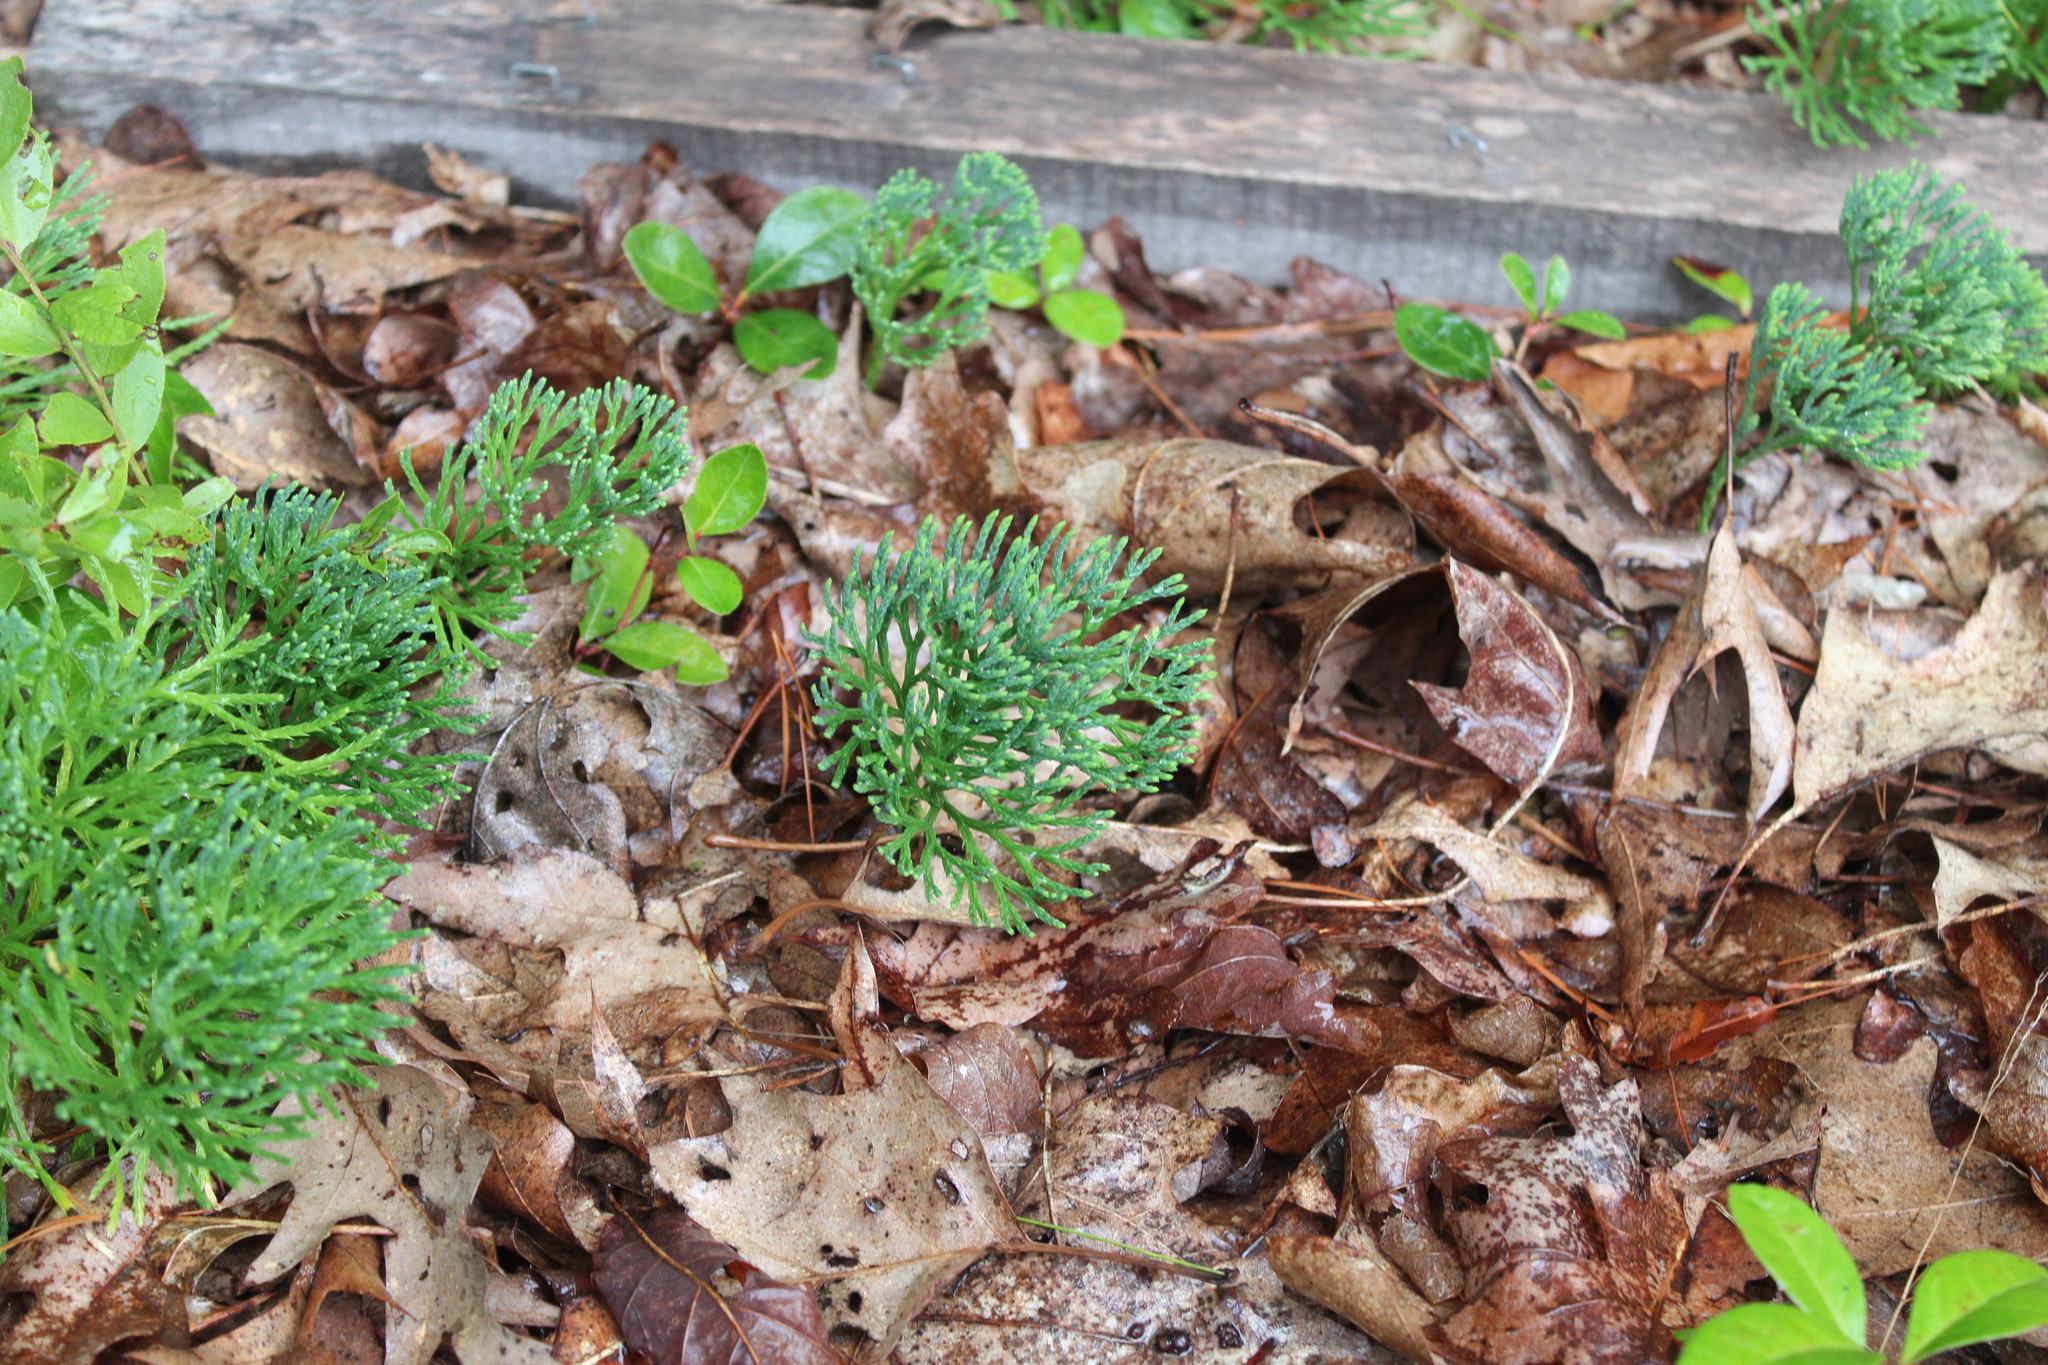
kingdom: Plantae
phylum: Tracheophyta
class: Lycopodiopsida
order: Lycopodiales
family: Lycopodiaceae
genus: Diphasiastrum
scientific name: Diphasiastrum tristachyum
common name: Blue ground-cedar
